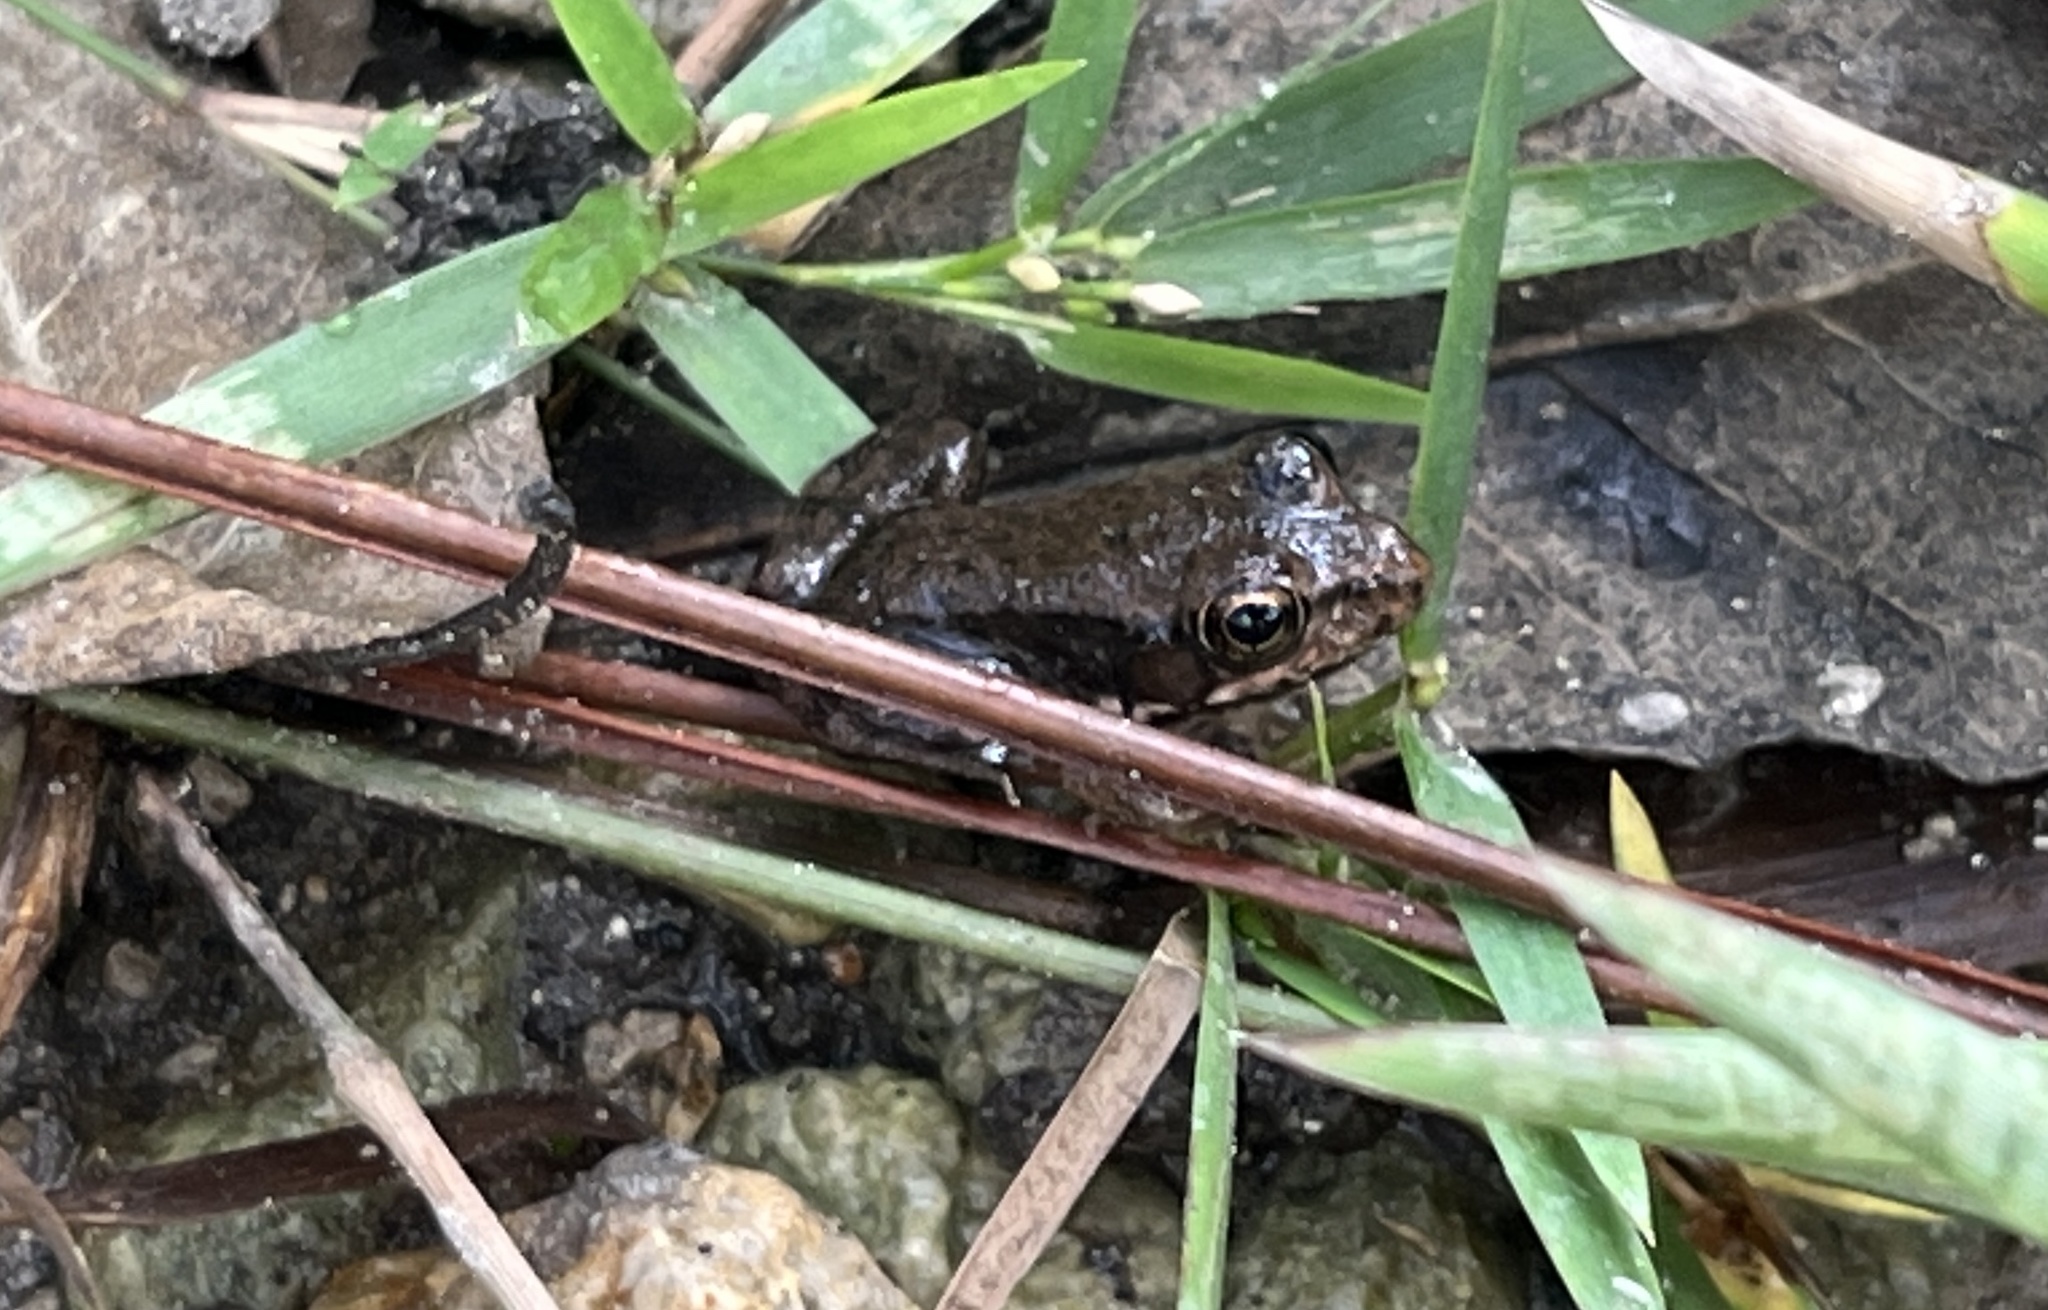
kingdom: Animalia
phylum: Chordata
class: Amphibia
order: Anura
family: Ranidae
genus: Lithobates
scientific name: Lithobates clamitans
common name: Green frog
